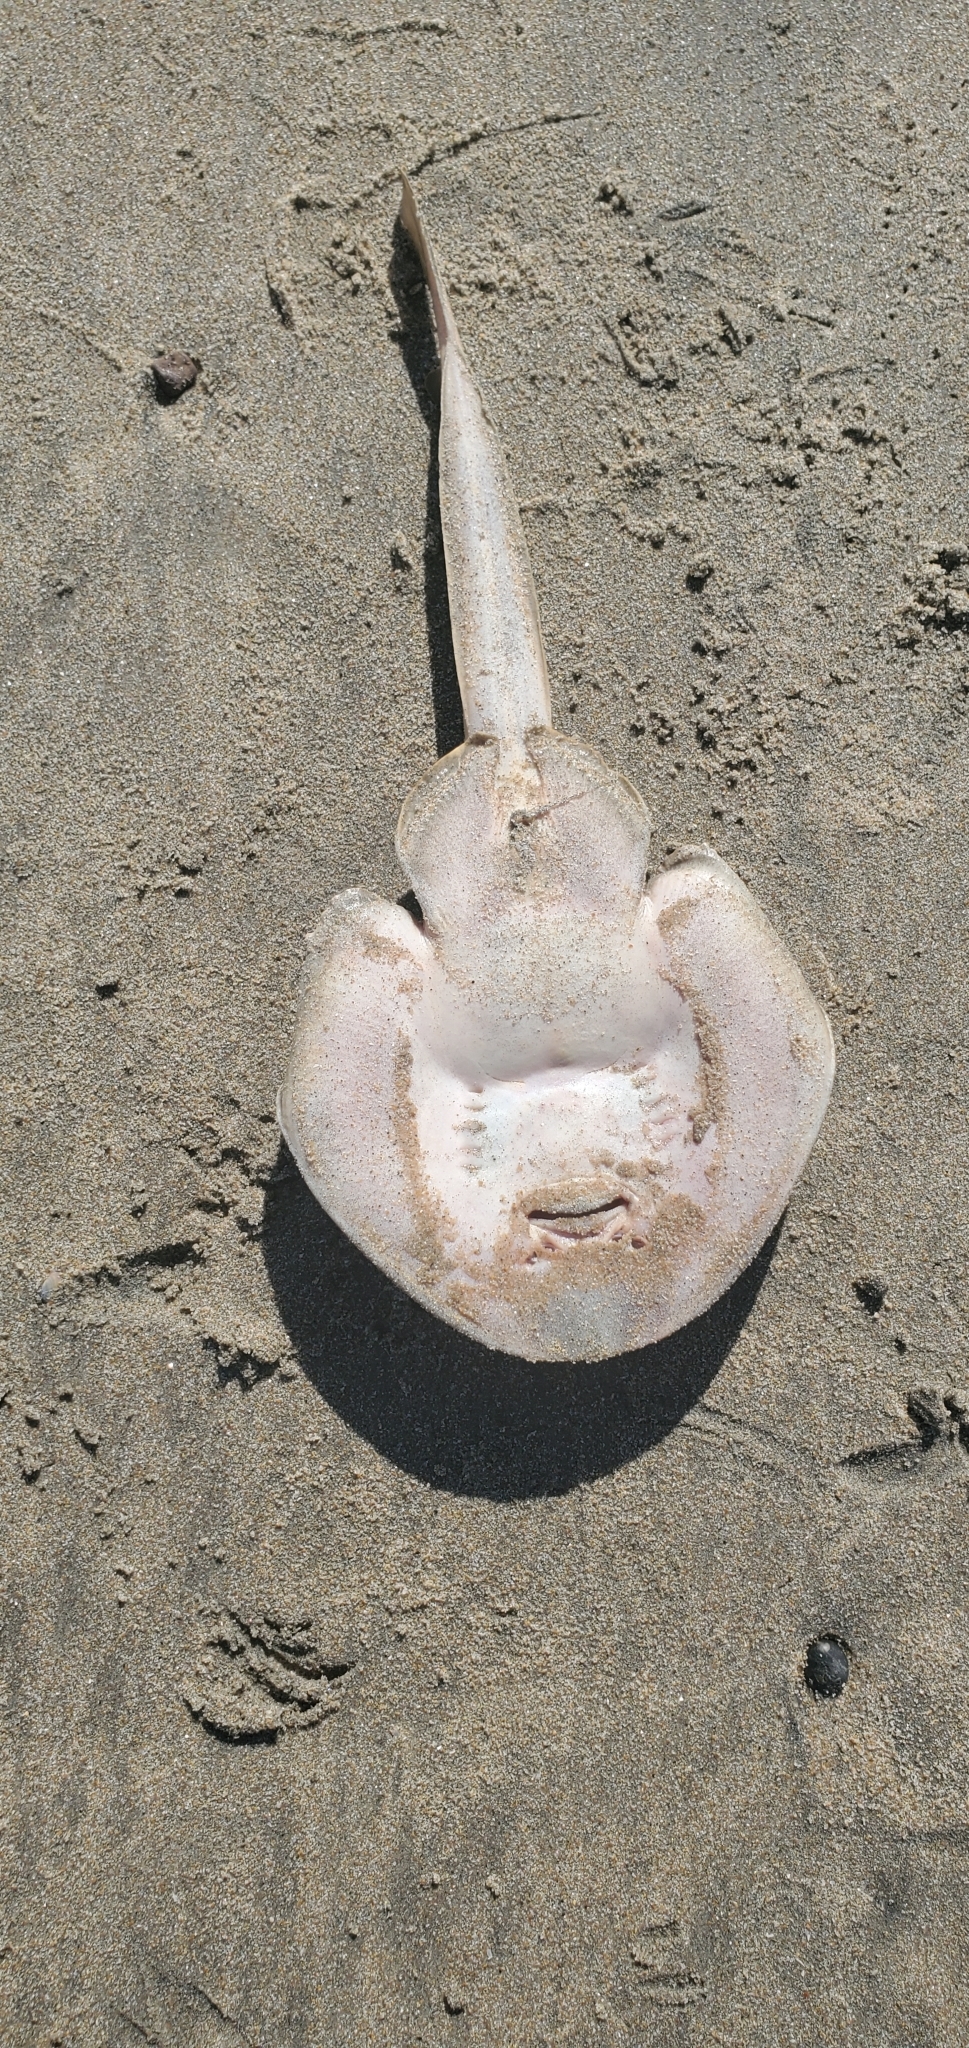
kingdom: Animalia
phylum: Chordata
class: Elasmobranchii
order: Rhinopristiformes
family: Rhinobatidae
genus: Platyrhinoidis
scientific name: Platyrhinoidis triseriata
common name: Thornback
